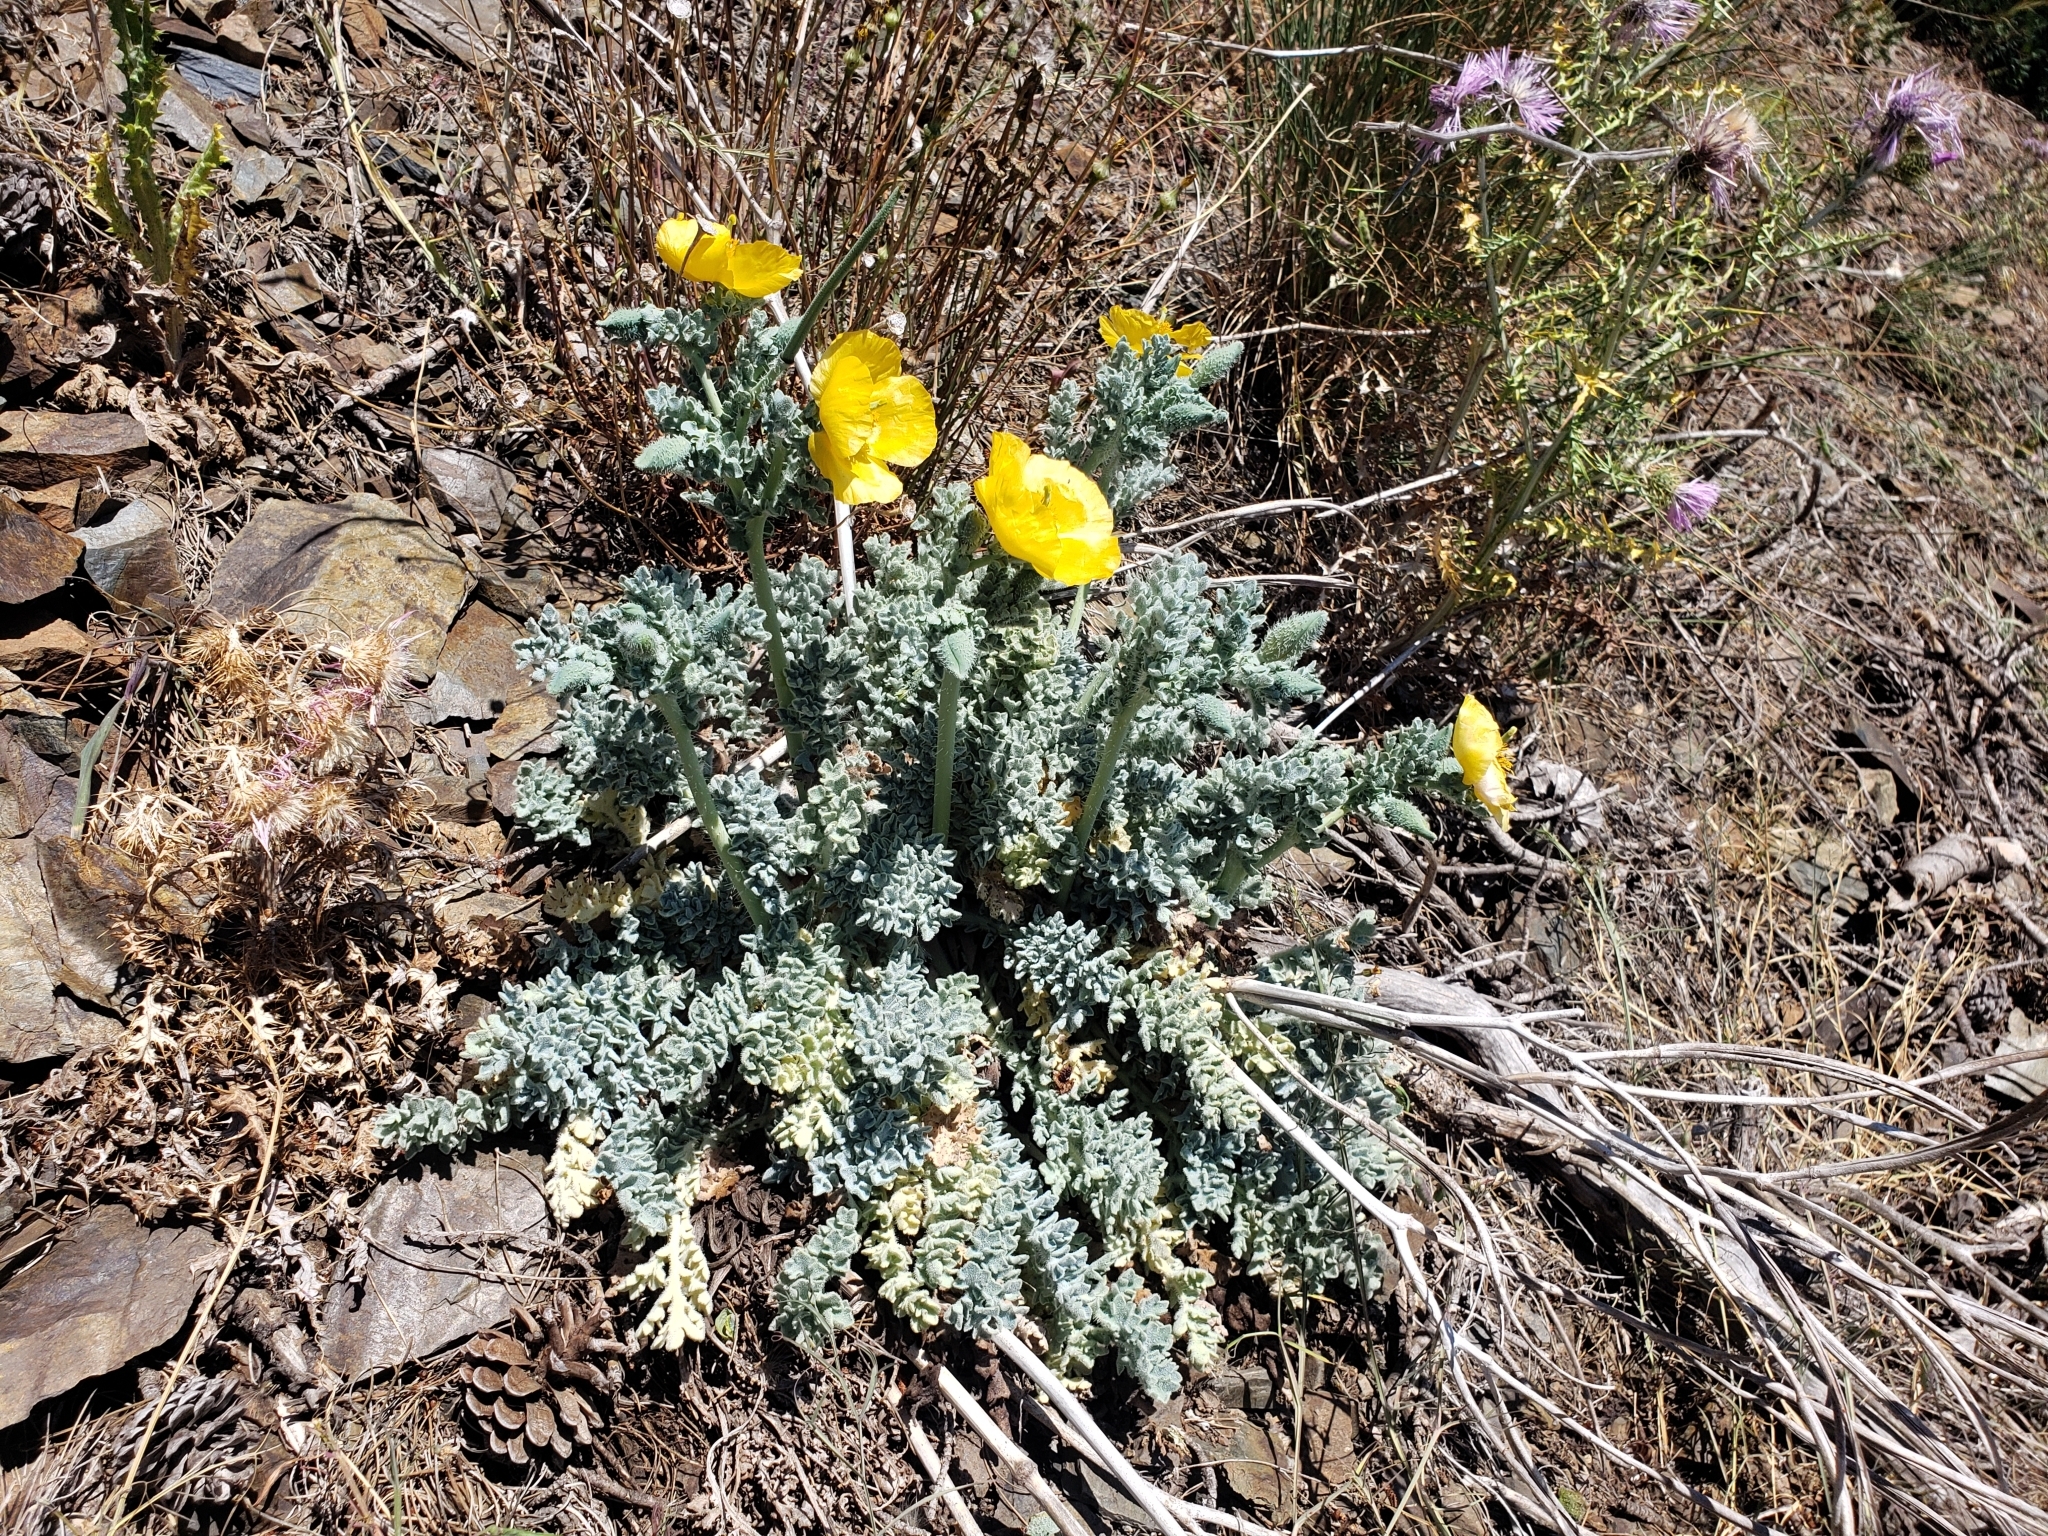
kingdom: Plantae
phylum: Tracheophyta
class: Magnoliopsida
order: Ranunculales
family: Papaveraceae
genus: Glaucium
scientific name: Glaucium flavum
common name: Yellow horned-poppy
